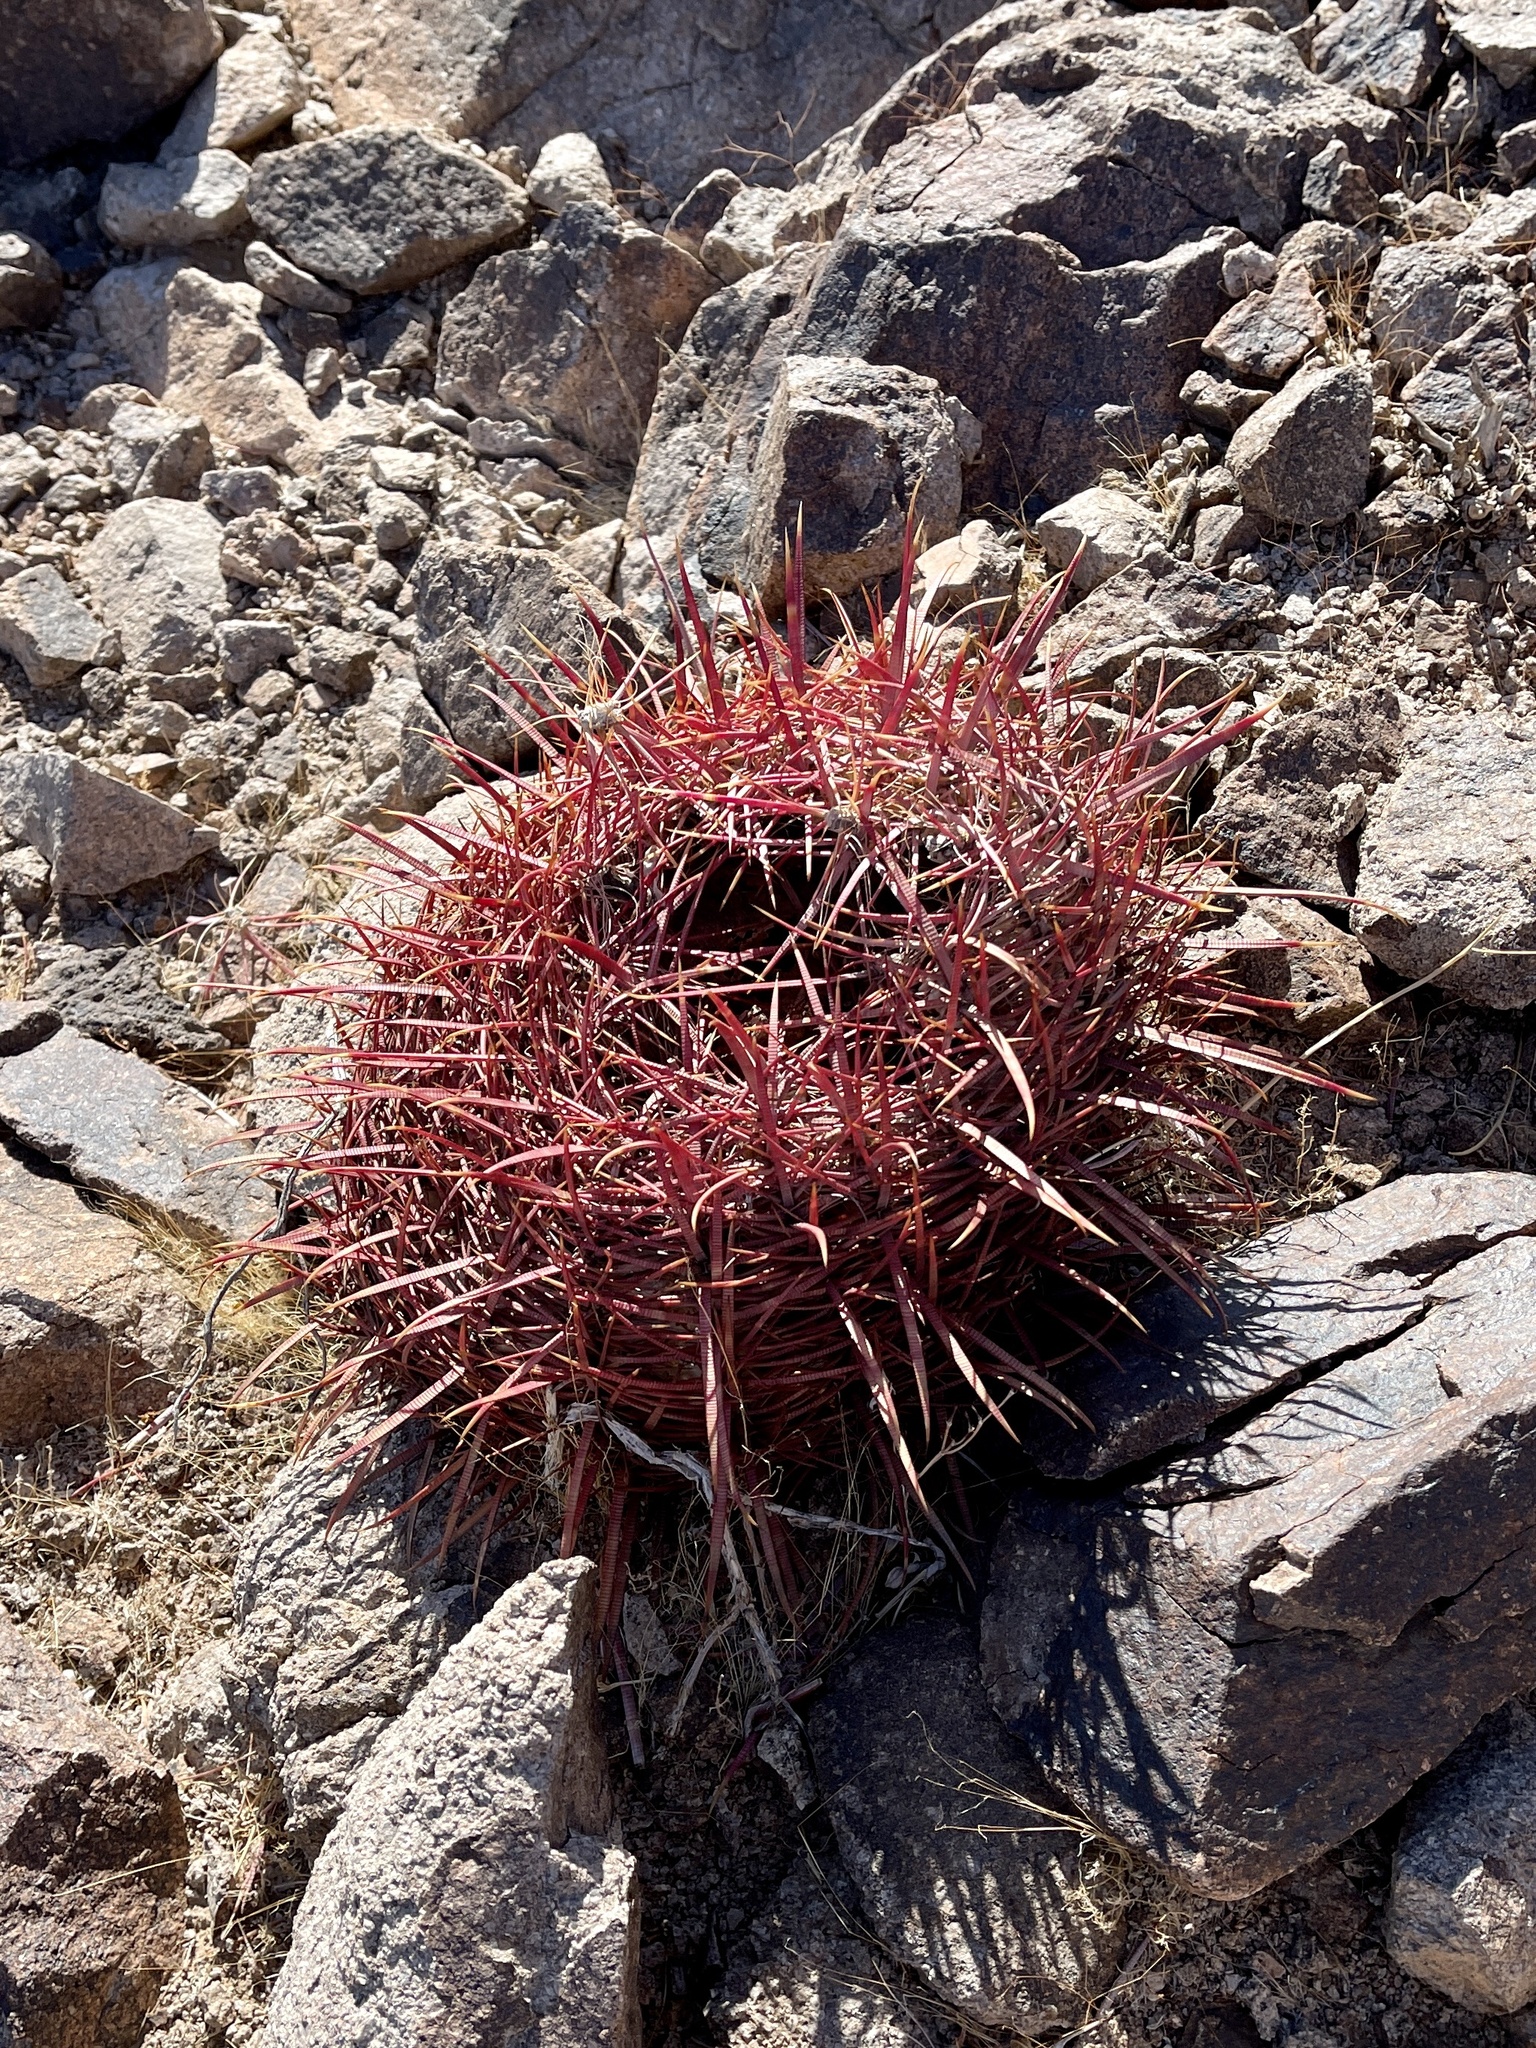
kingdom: Plantae
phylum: Tracheophyta
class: Magnoliopsida
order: Caryophyllales
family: Cactaceae
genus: Ferocactus
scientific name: Ferocactus cylindraceus
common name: California barrel cactus
